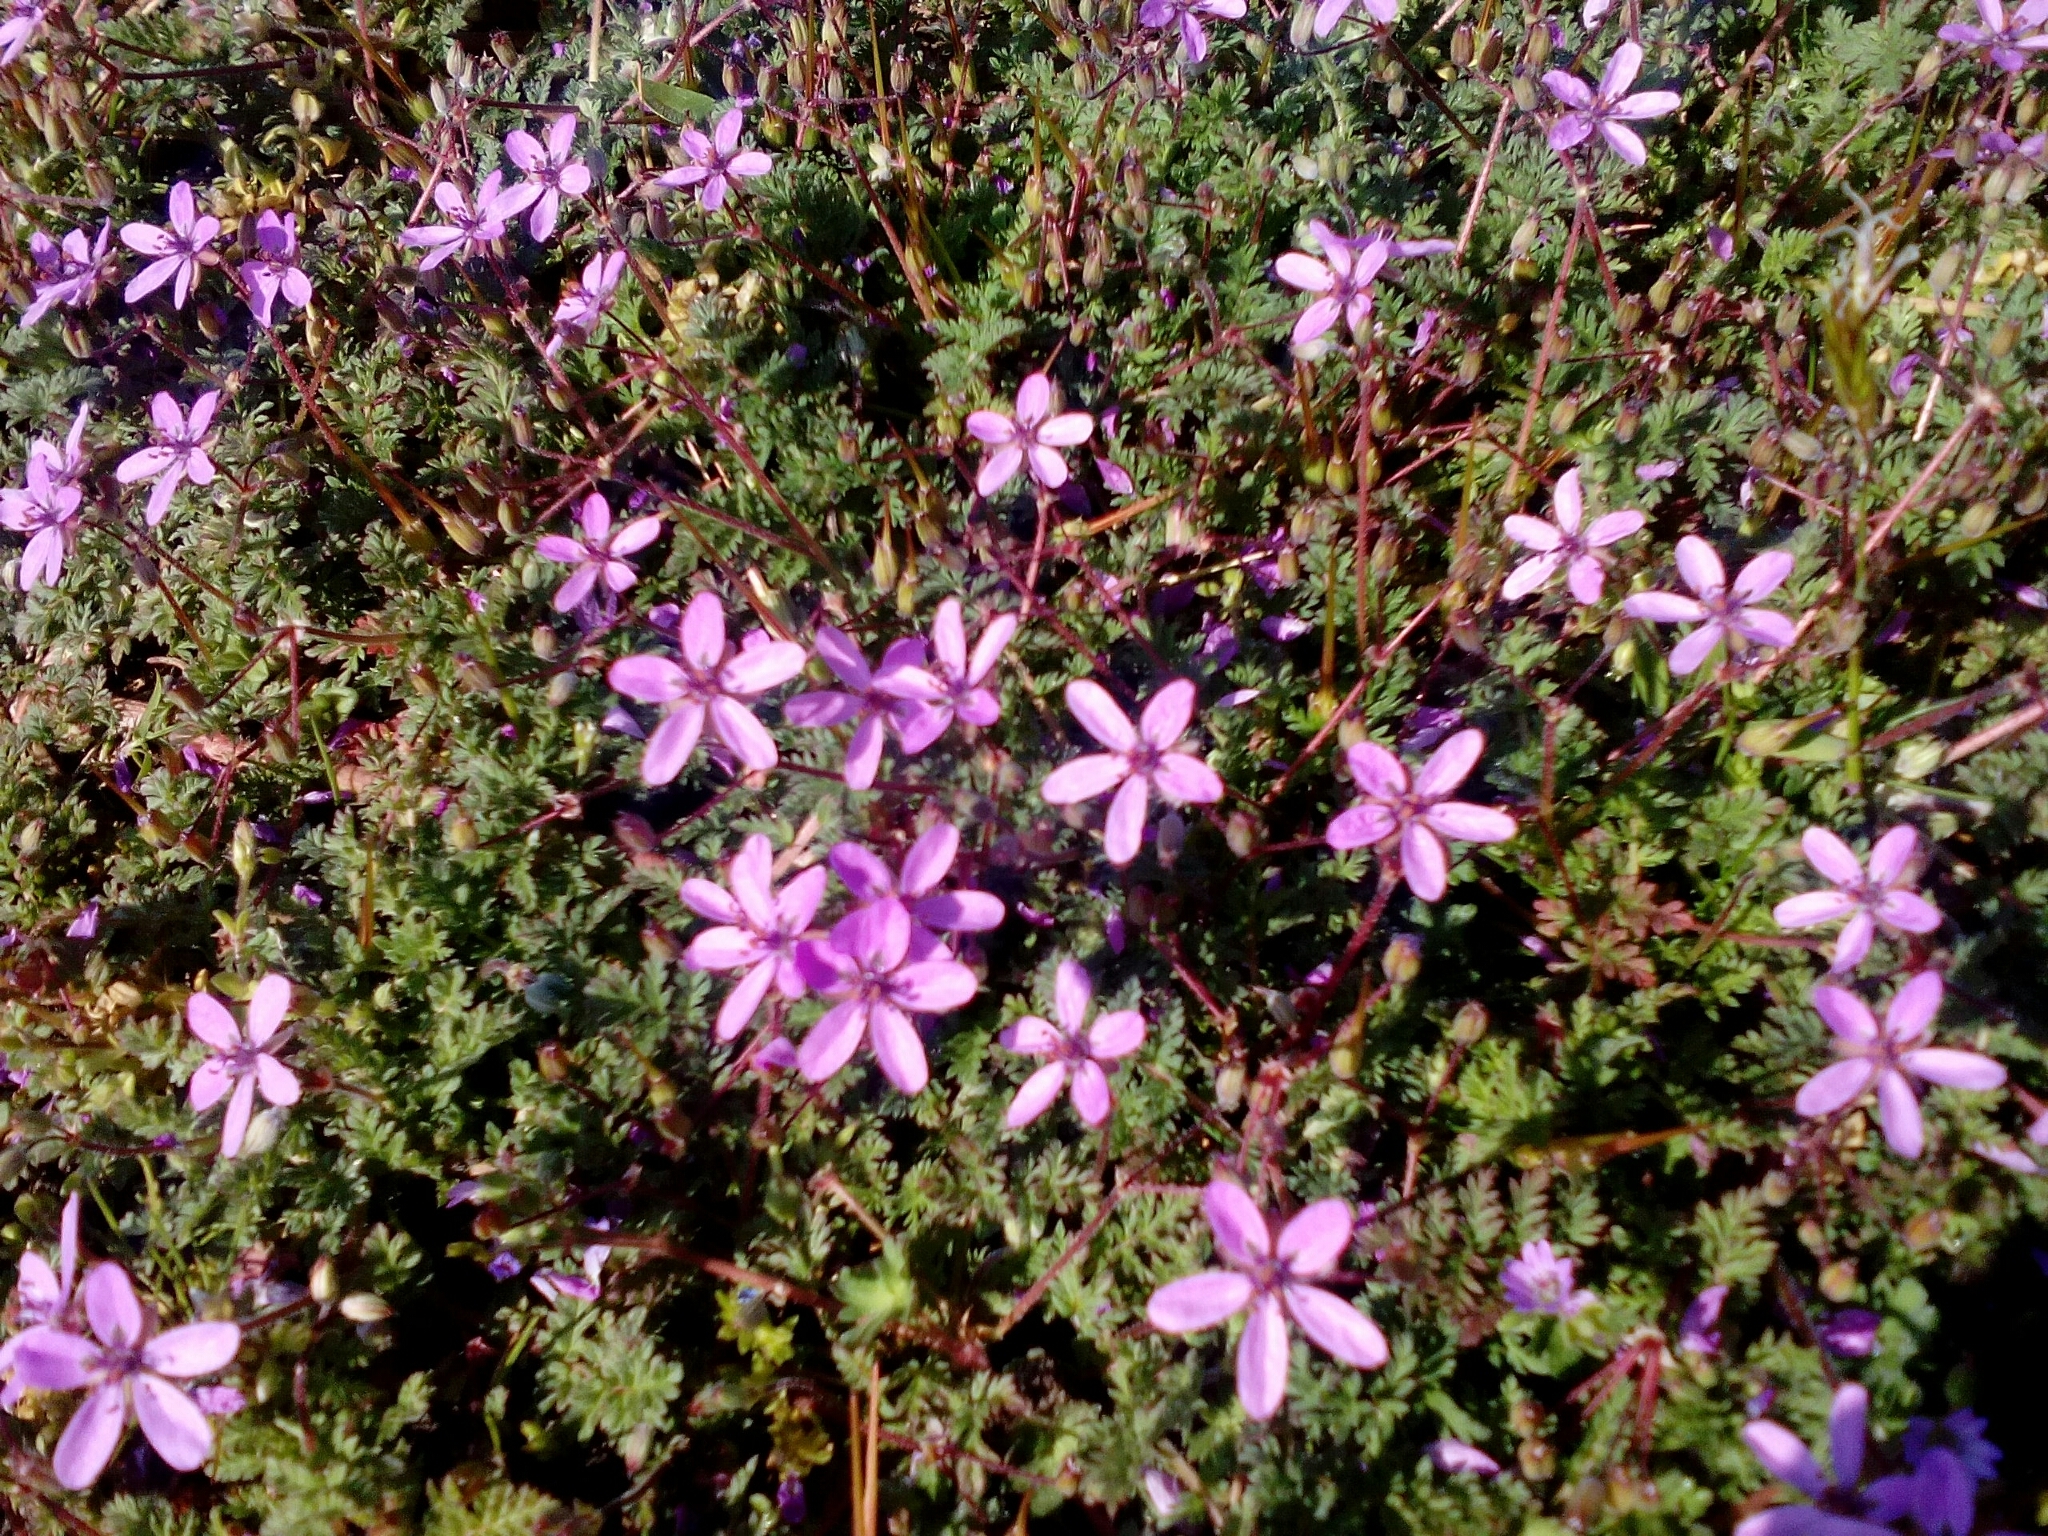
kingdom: Plantae
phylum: Tracheophyta
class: Magnoliopsida
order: Geraniales
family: Geraniaceae
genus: Erodium
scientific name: Erodium cicutarium
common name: Common stork's-bill
